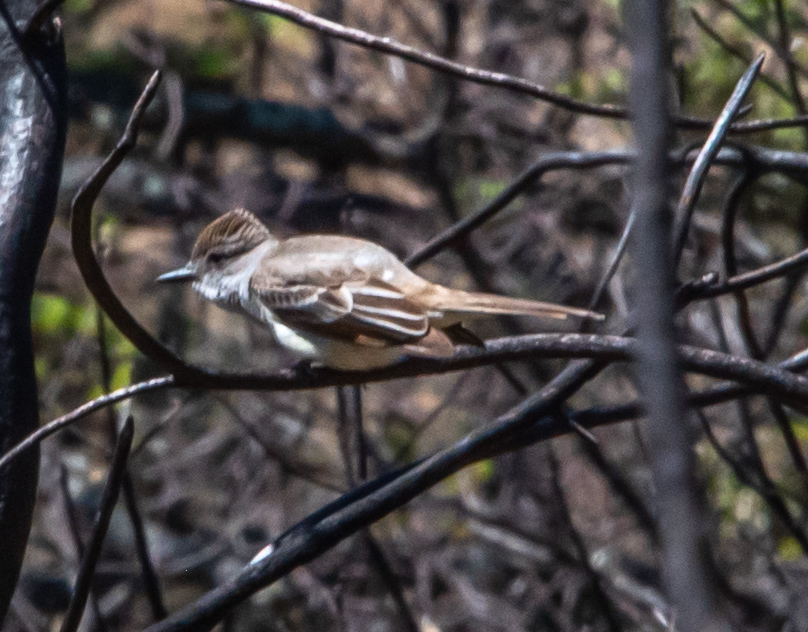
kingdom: Animalia
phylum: Chordata
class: Aves
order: Passeriformes
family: Tyrannidae
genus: Myiarchus
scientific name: Myiarchus cinerascens
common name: Ash-throated flycatcher
